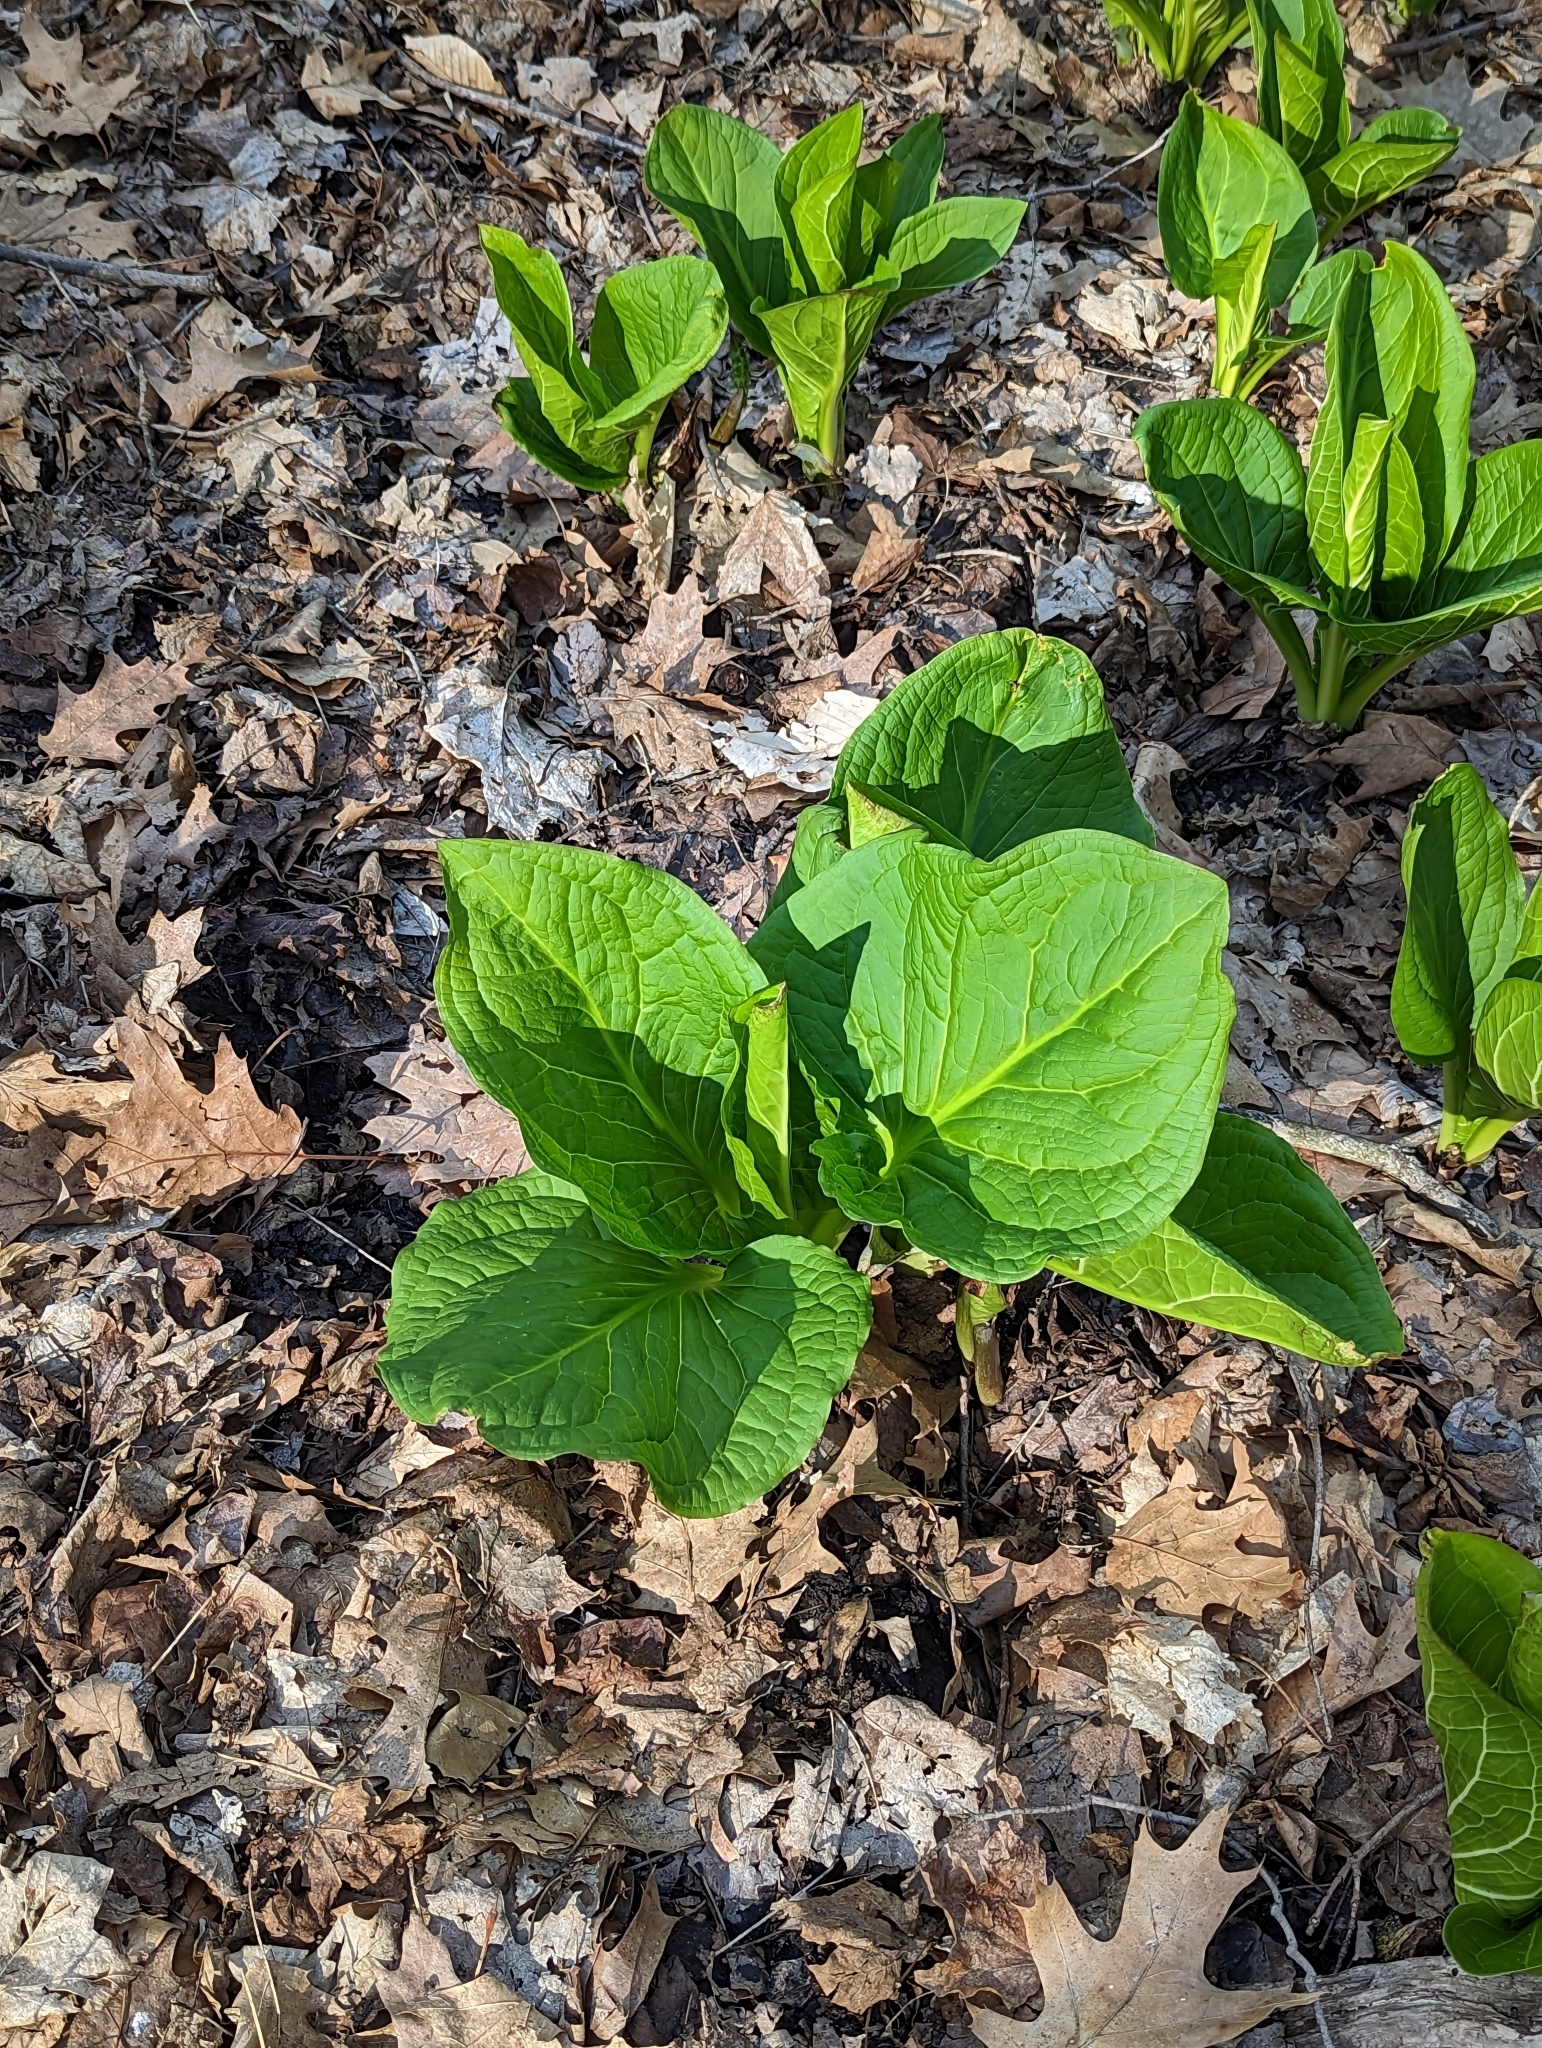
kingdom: Plantae
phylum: Tracheophyta
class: Liliopsida
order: Alismatales
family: Araceae
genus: Symplocarpus
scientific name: Symplocarpus foetidus
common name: Eastern skunk cabbage
